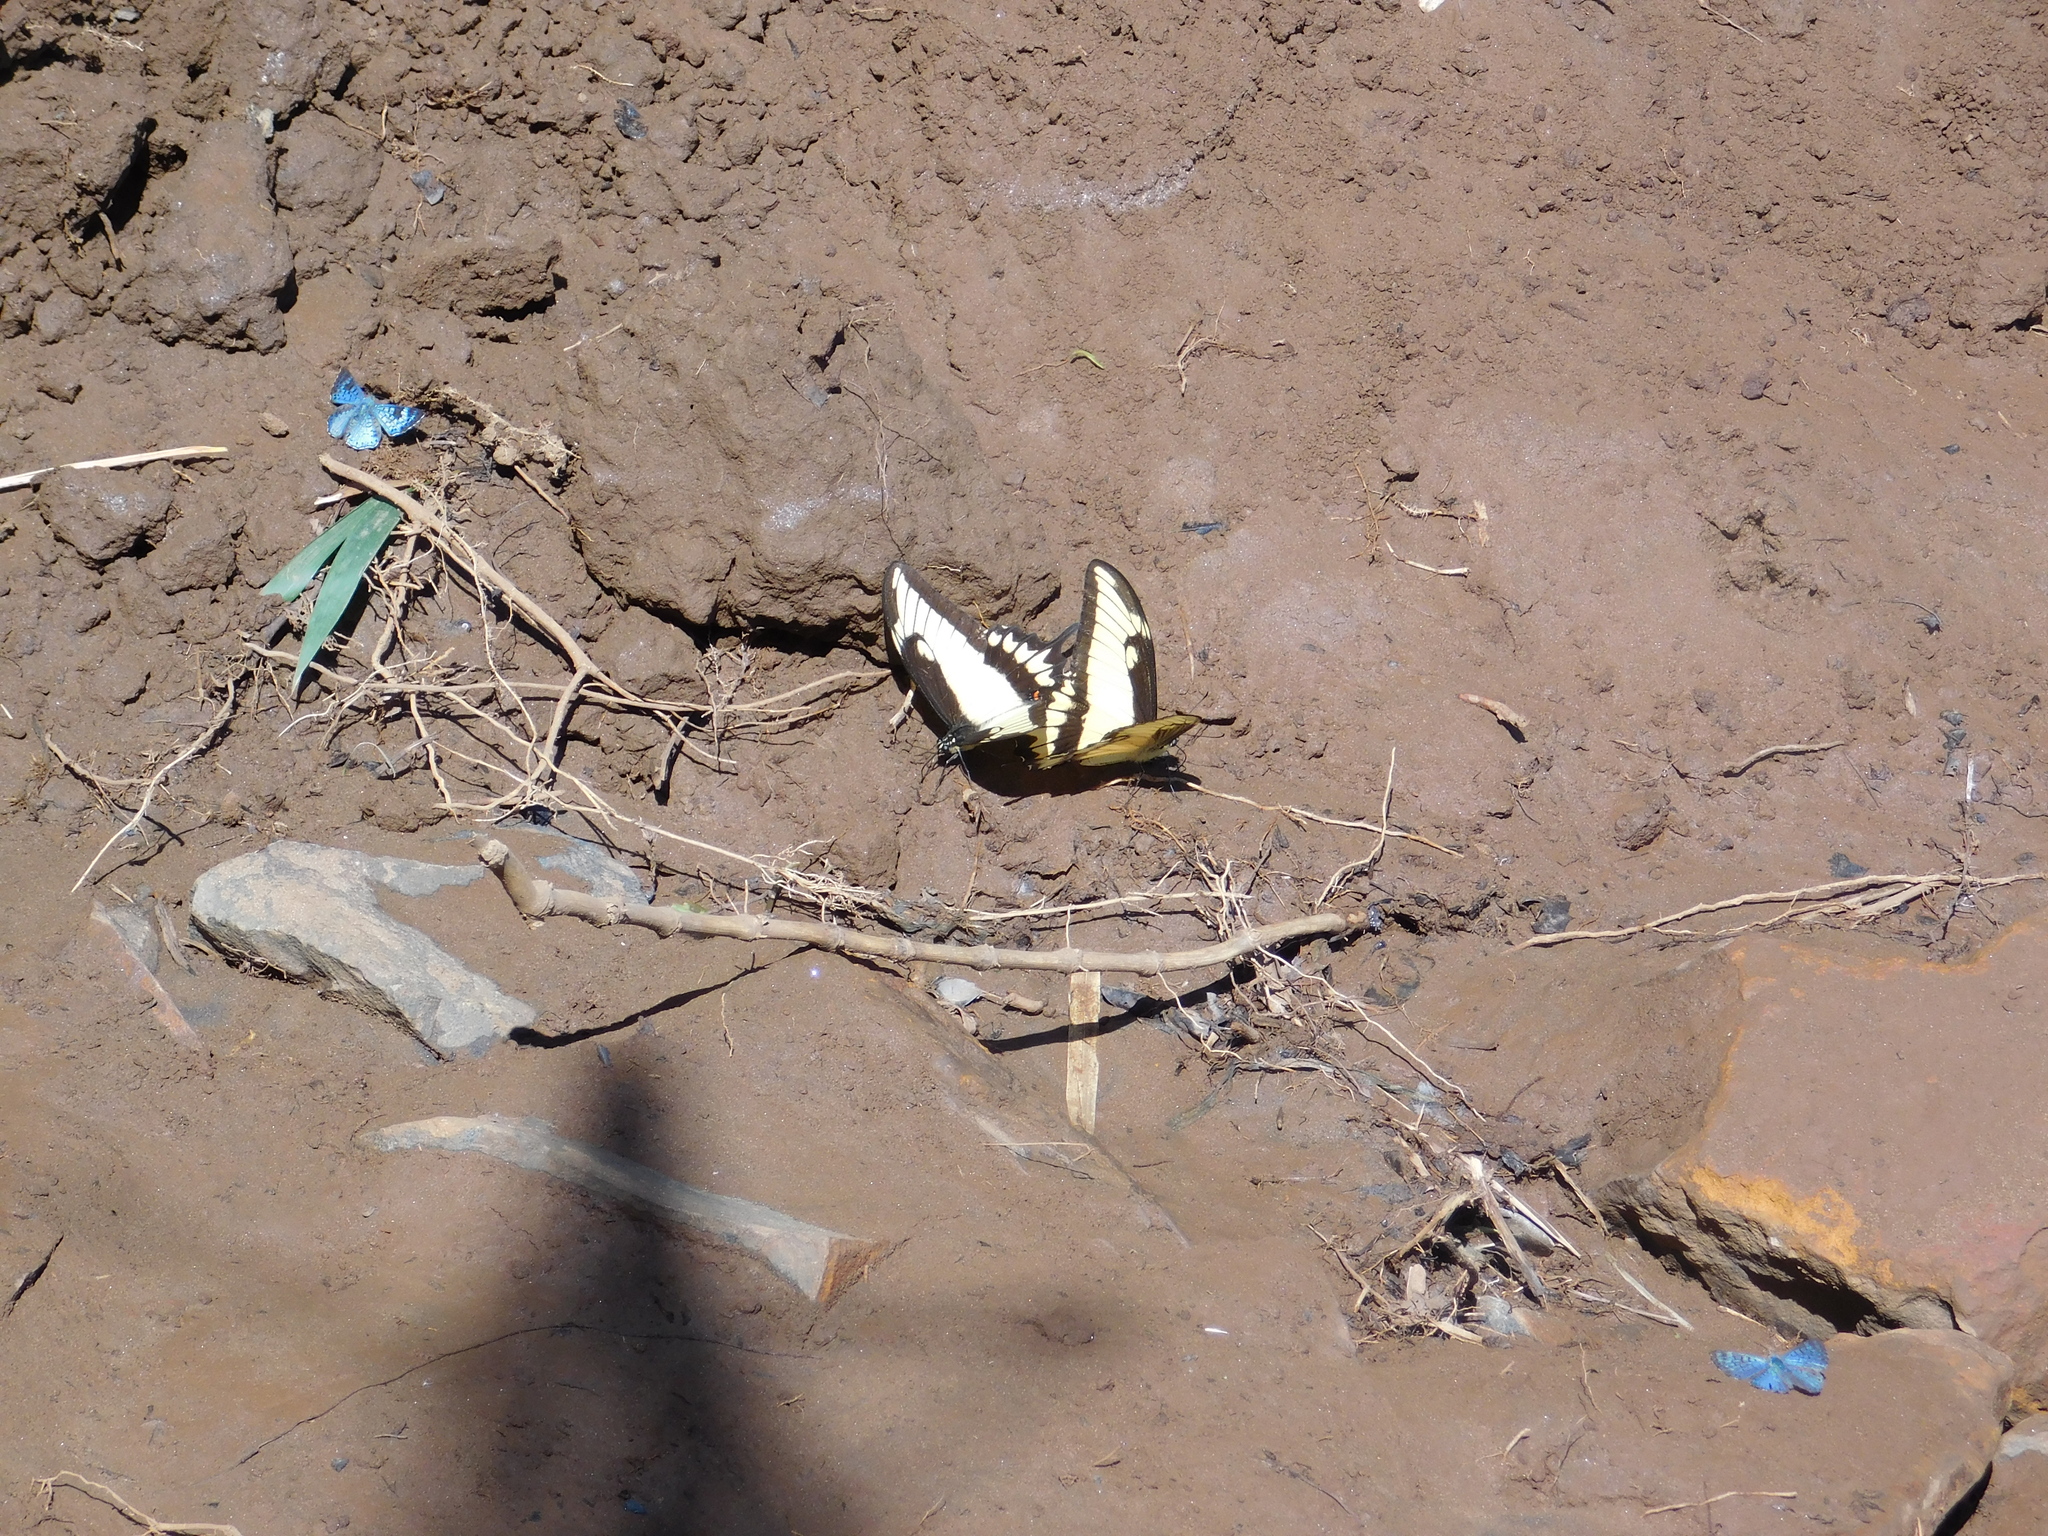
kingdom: Animalia
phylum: Arthropoda
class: Insecta
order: Lepidoptera
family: Papilionidae
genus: Papilio
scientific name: Papilio astyalus
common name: Astyalus swallowtail
